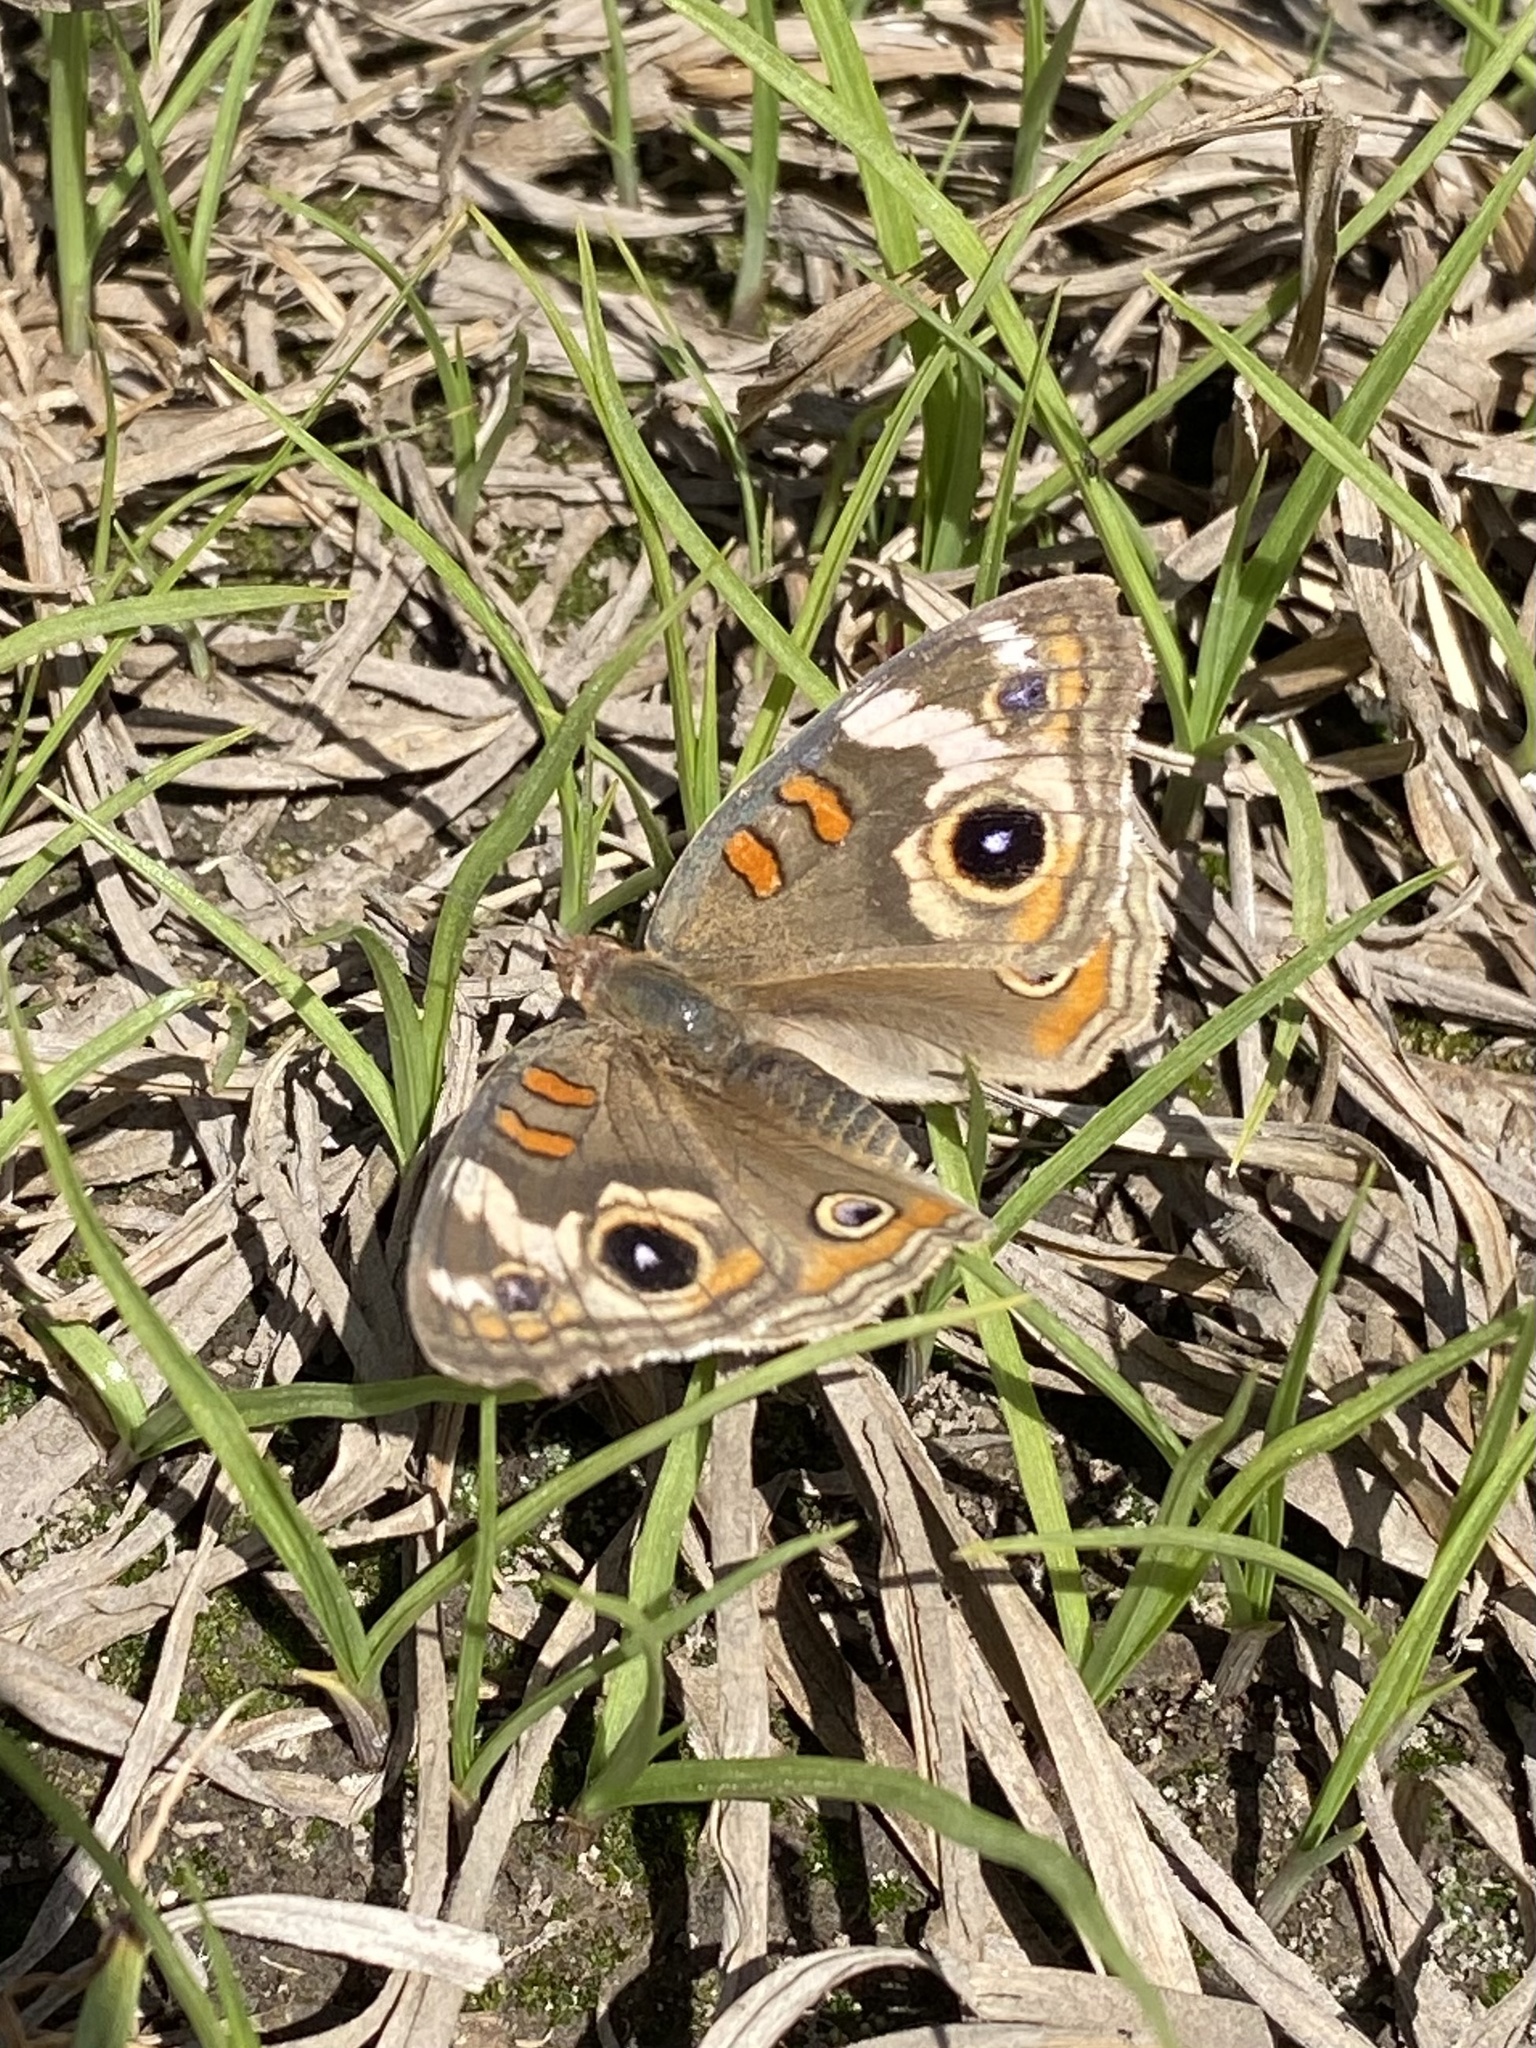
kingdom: Animalia
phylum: Arthropoda
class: Insecta
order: Lepidoptera
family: Nymphalidae
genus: Junonia
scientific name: Junonia grisea
